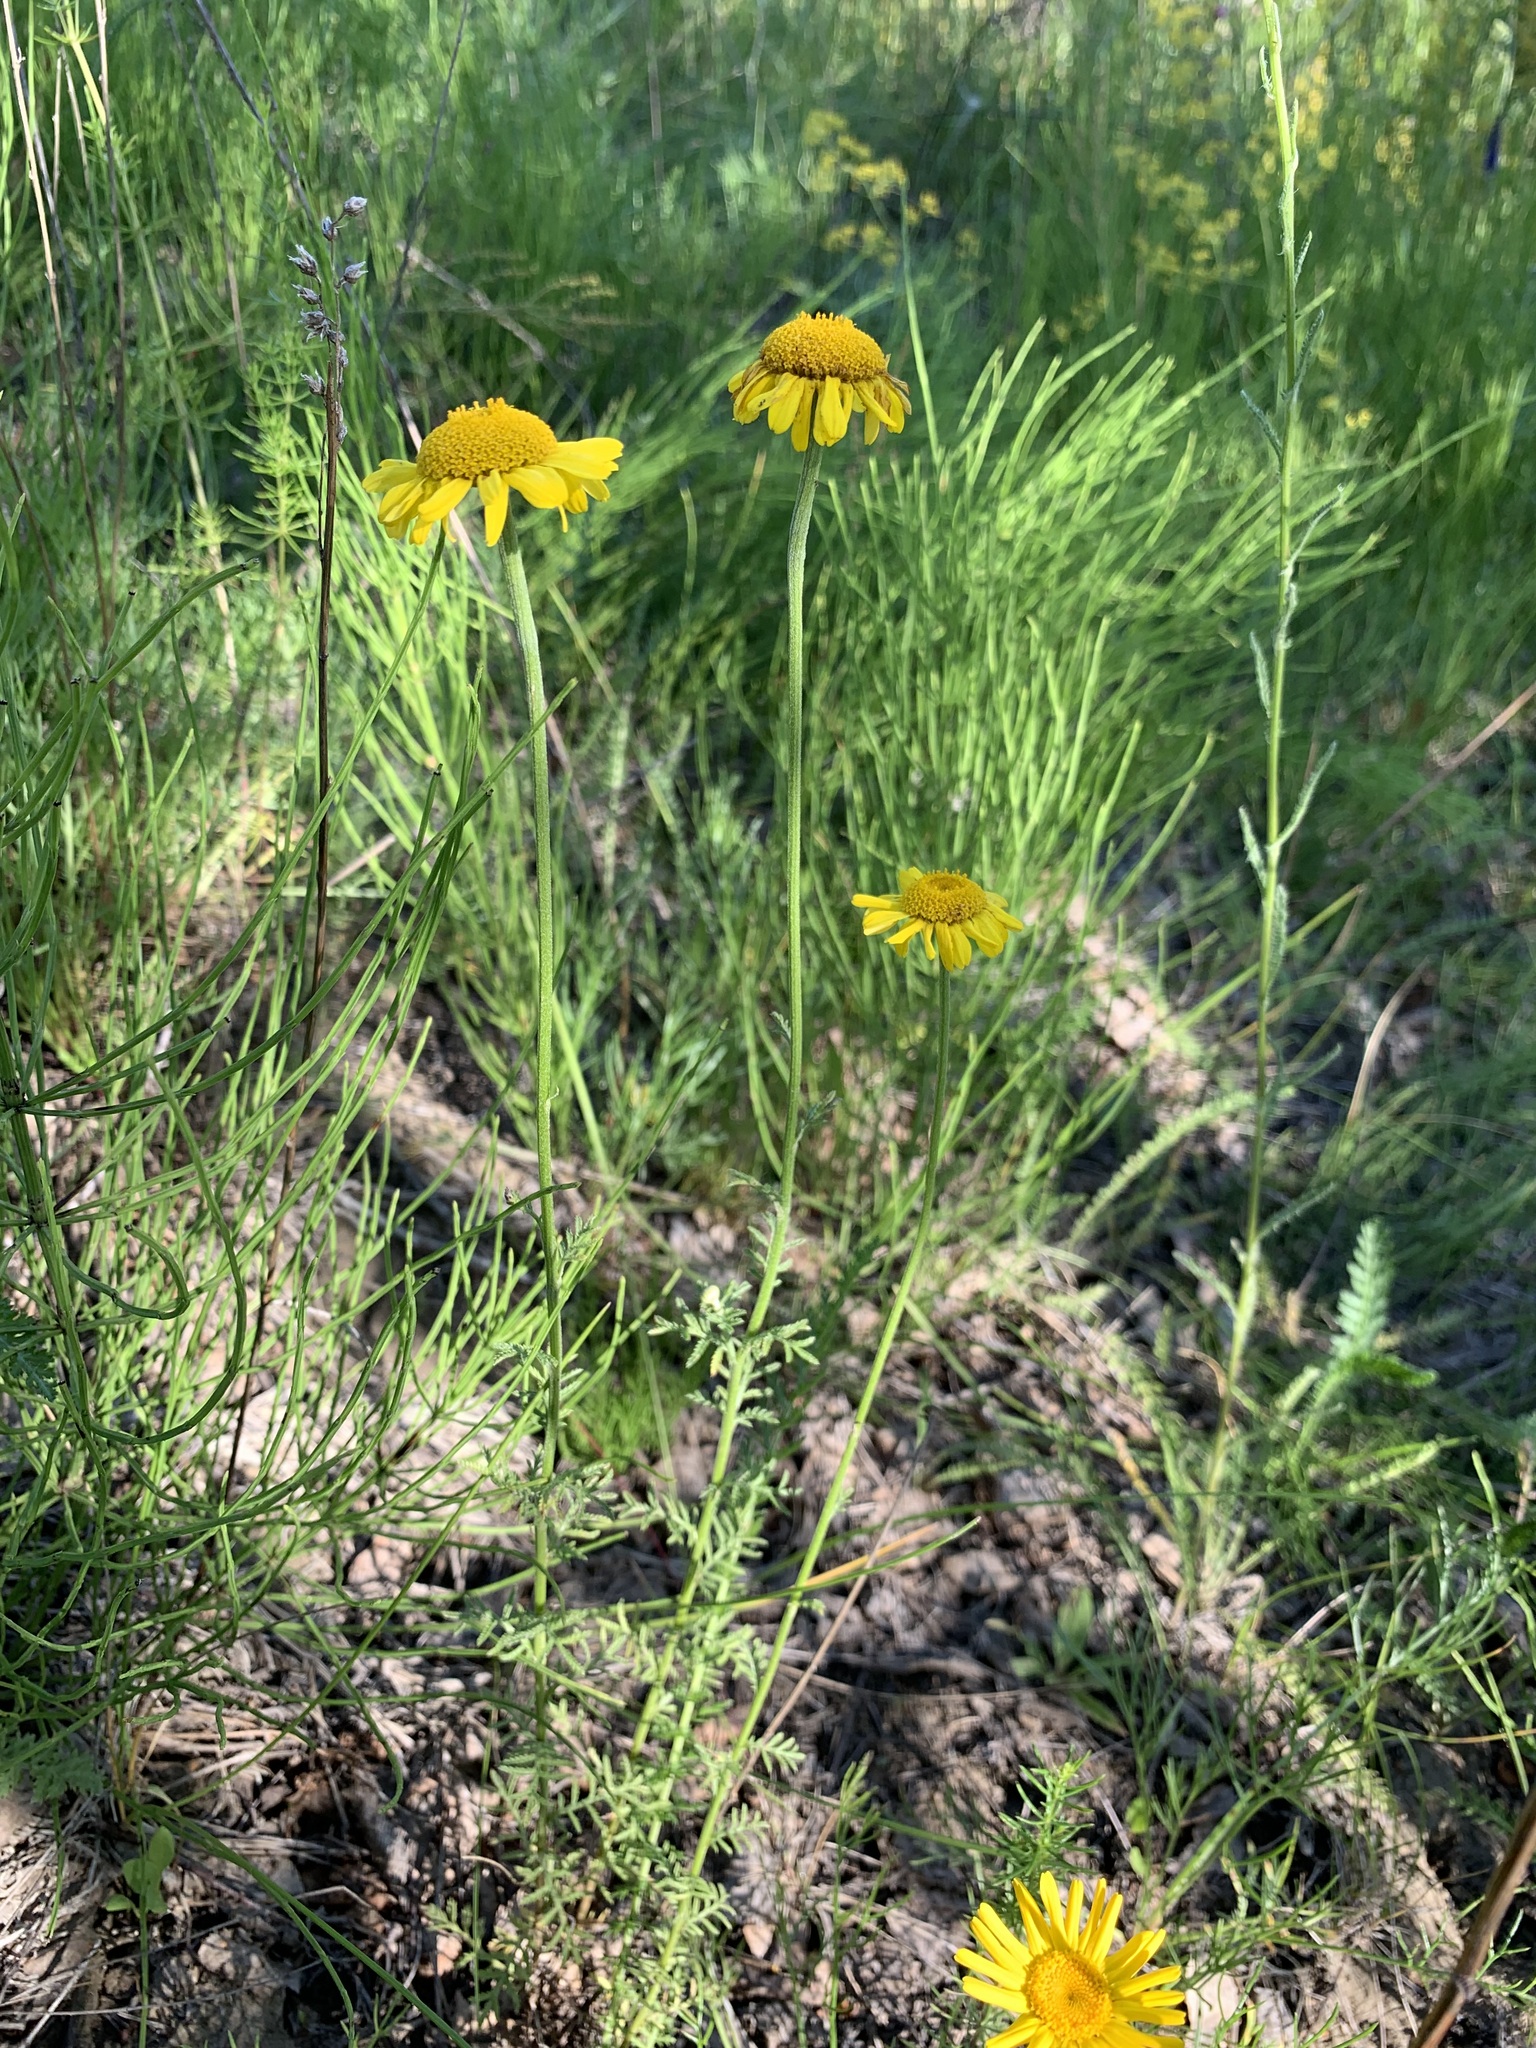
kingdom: Plantae
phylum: Tracheophyta
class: Magnoliopsida
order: Asterales
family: Asteraceae
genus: Cota
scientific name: Cota tinctoria
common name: Golden chamomile
